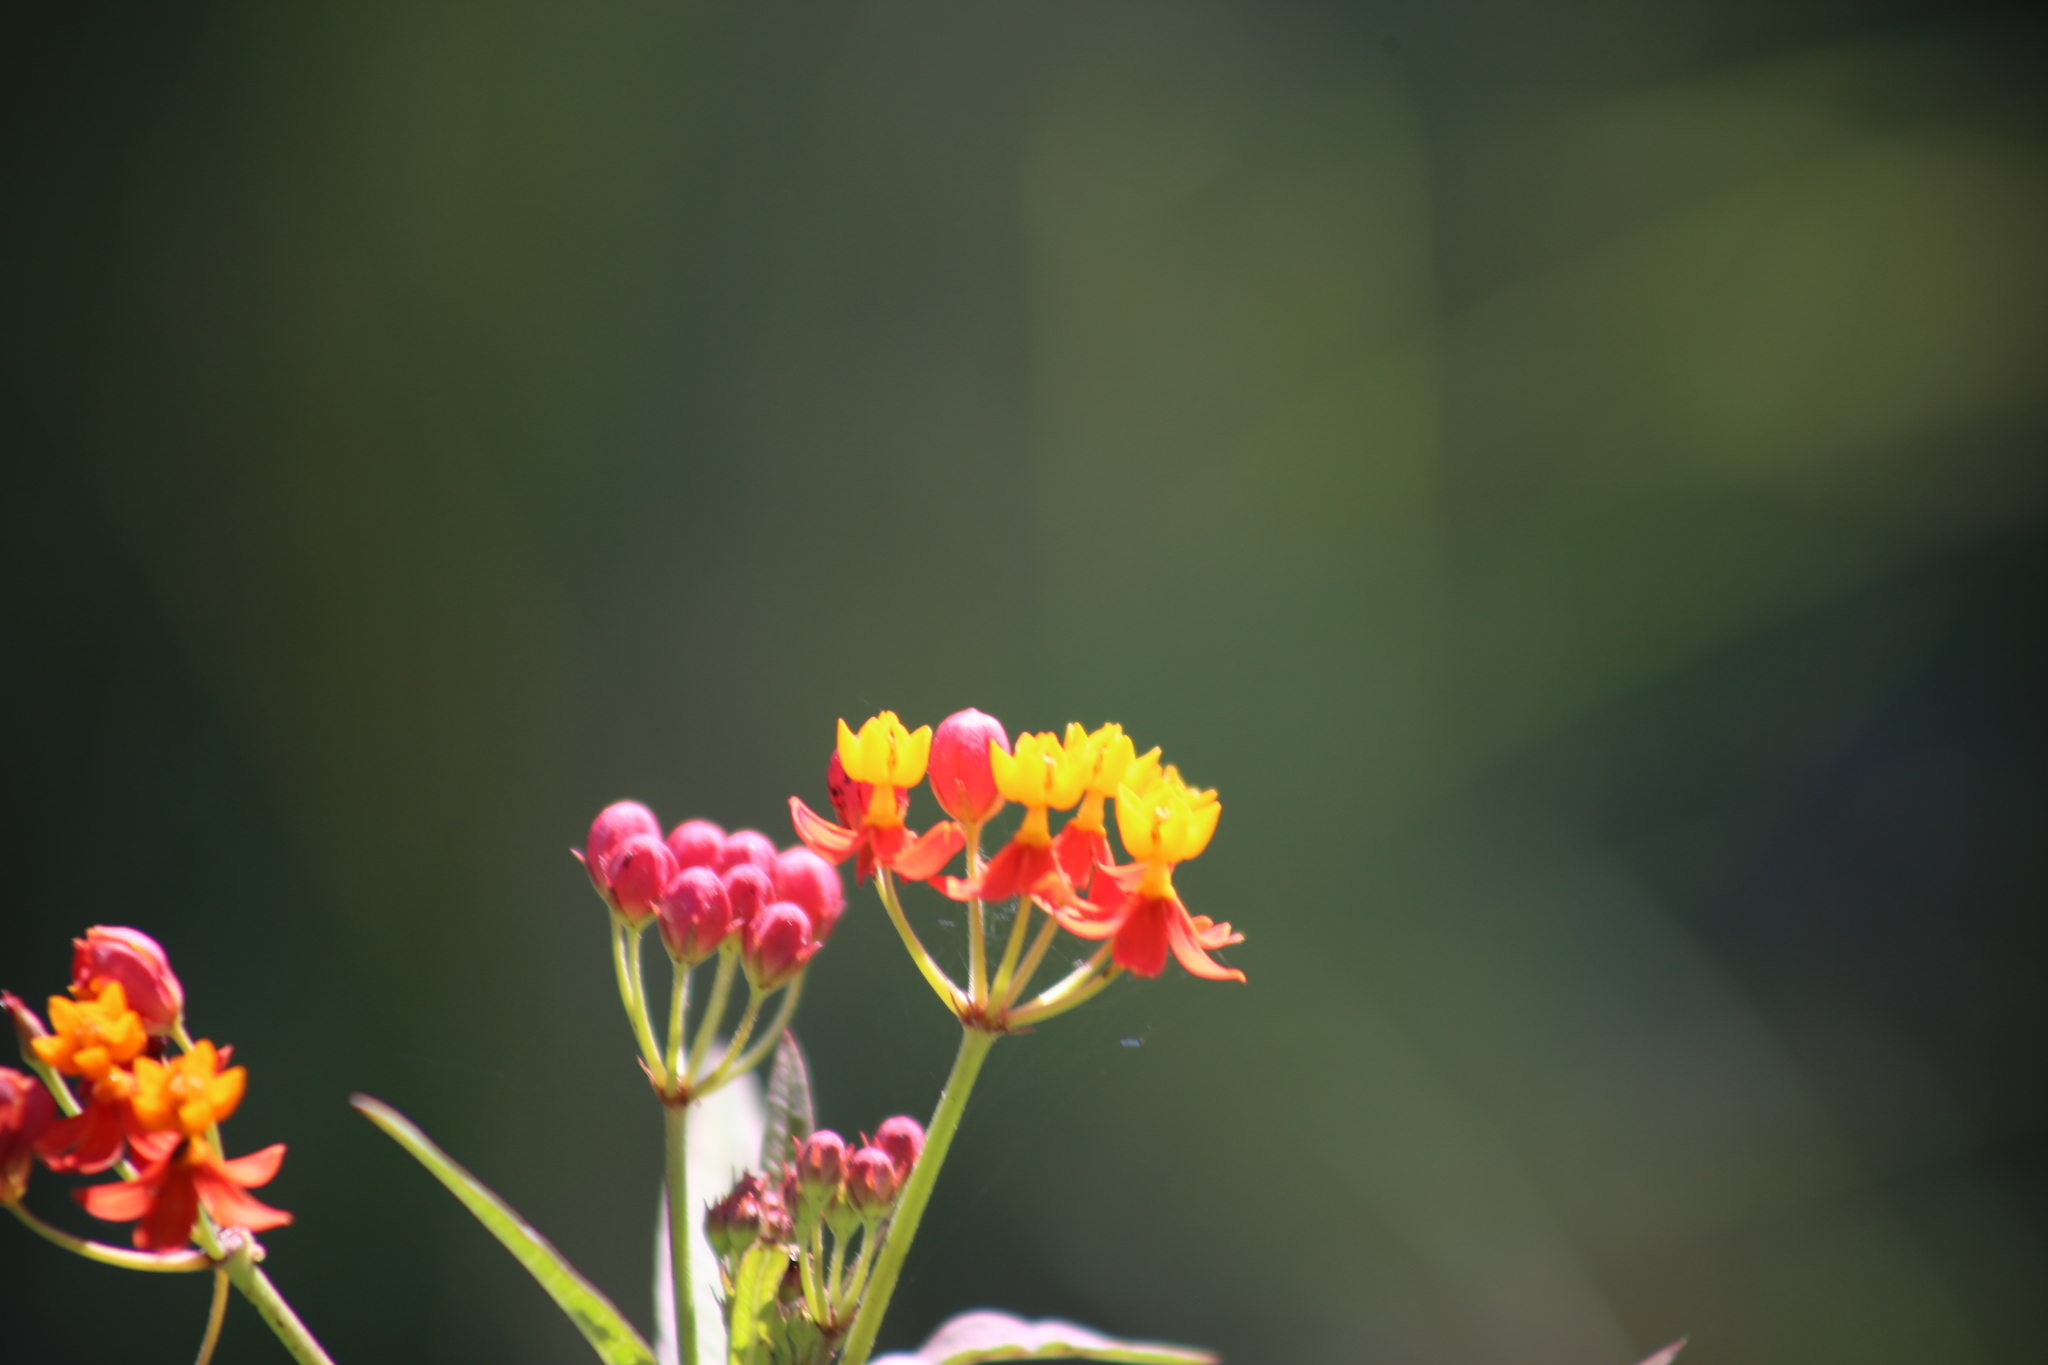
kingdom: Plantae
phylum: Tracheophyta
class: Magnoliopsida
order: Gentianales
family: Apocynaceae
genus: Asclepias
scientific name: Asclepias curassavica
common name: Bloodflower
